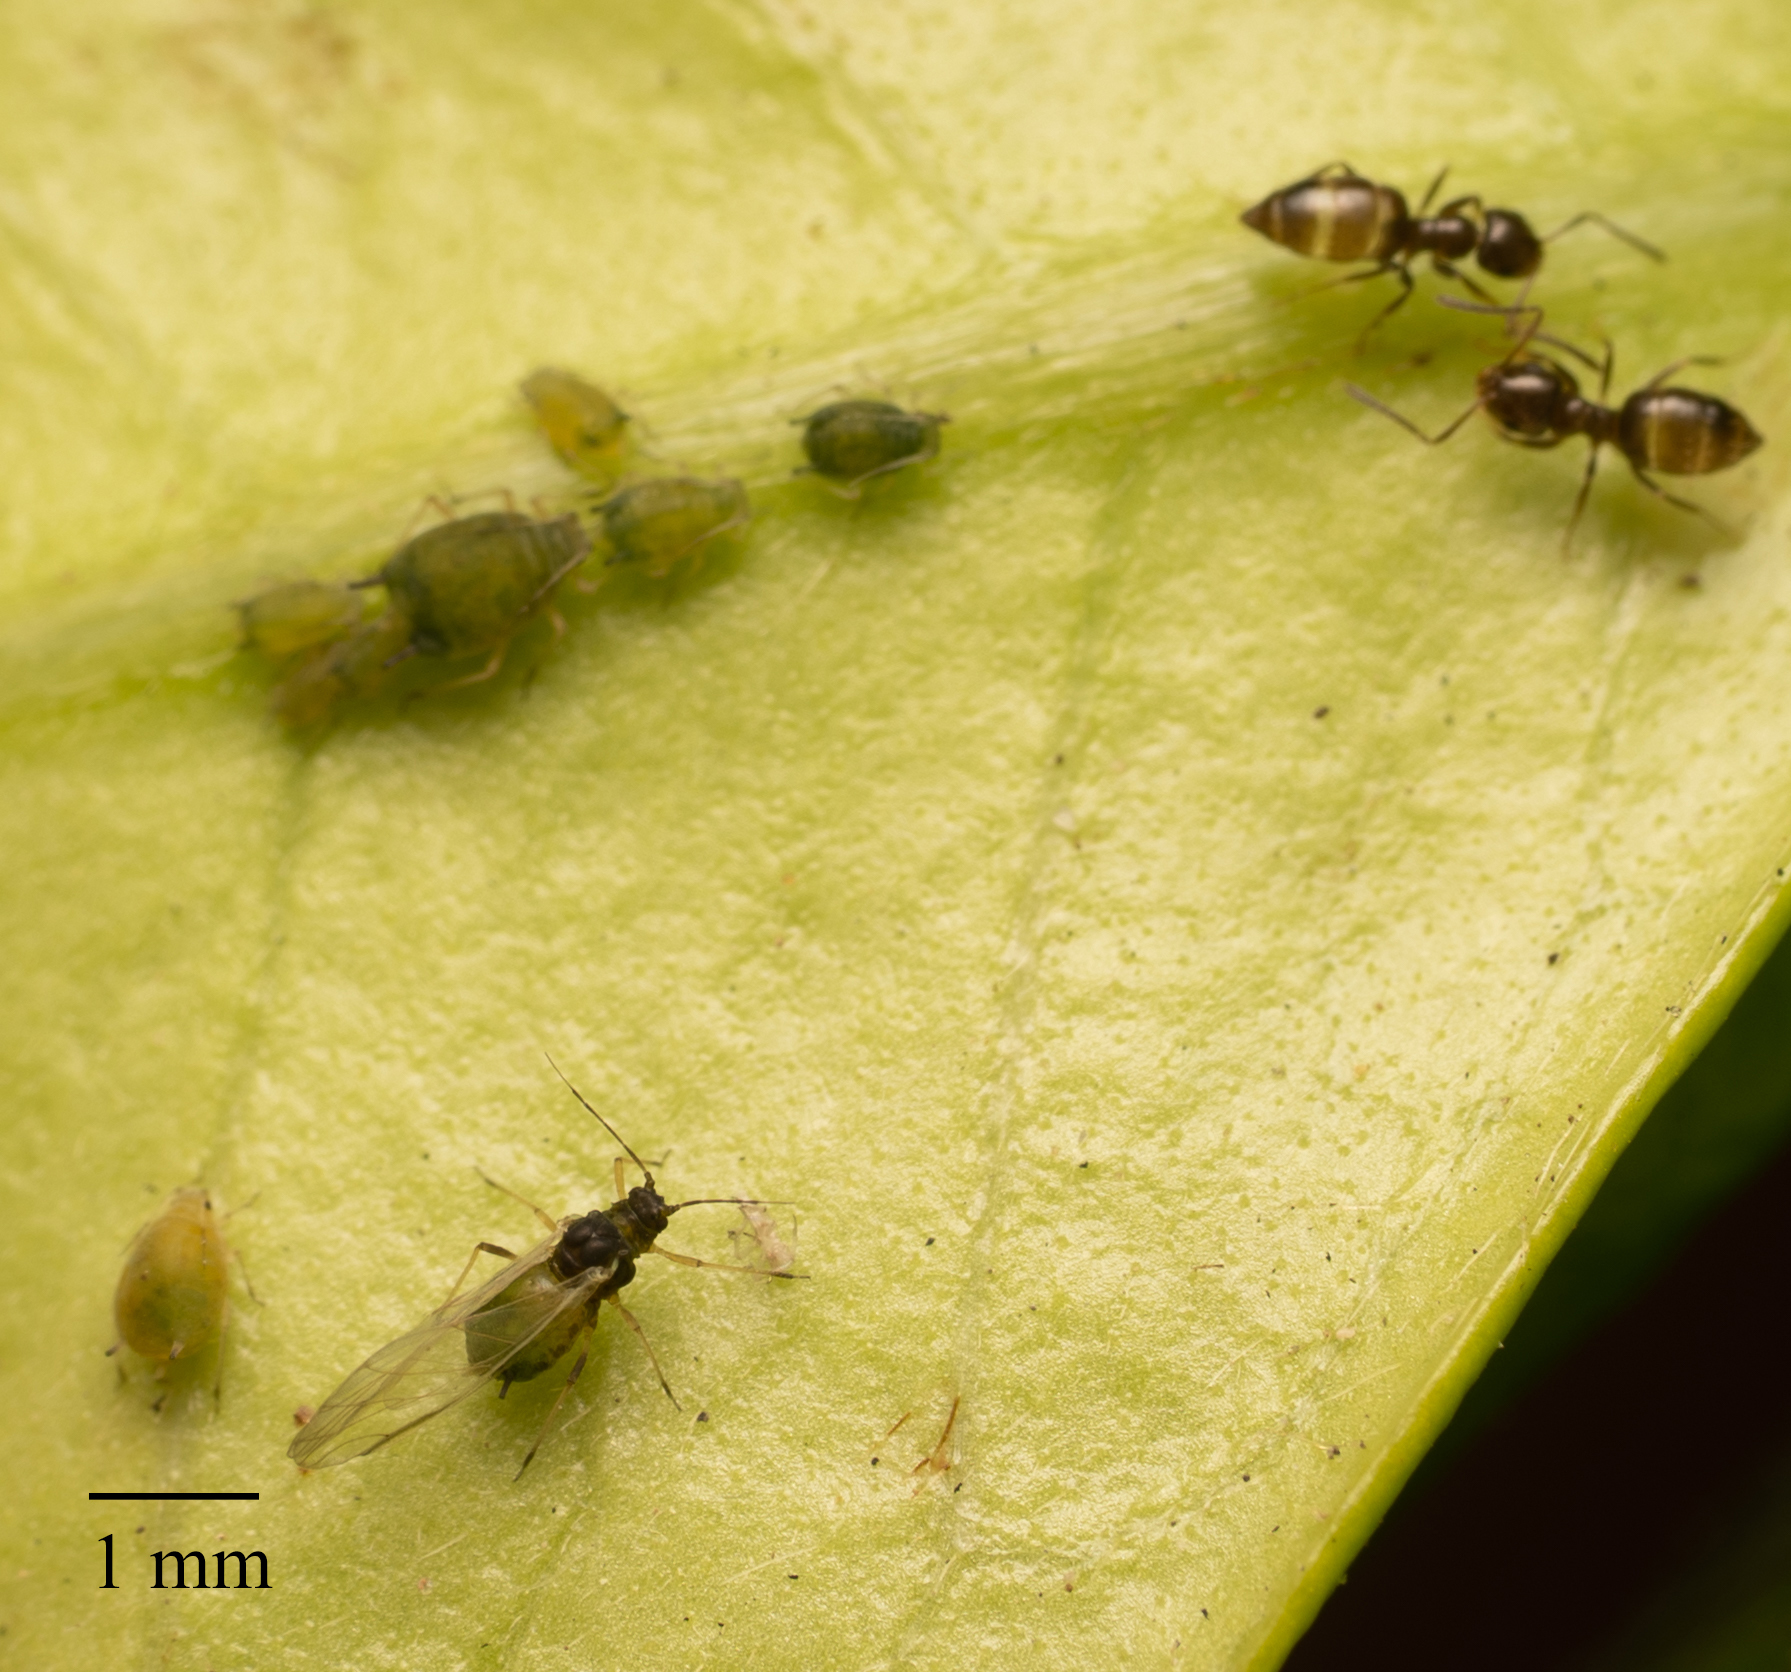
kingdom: Animalia
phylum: Arthropoda
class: Insecta
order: Hemiptera
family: Aphididae
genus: Aphis
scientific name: Aphis gossypii
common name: Melon aphid
